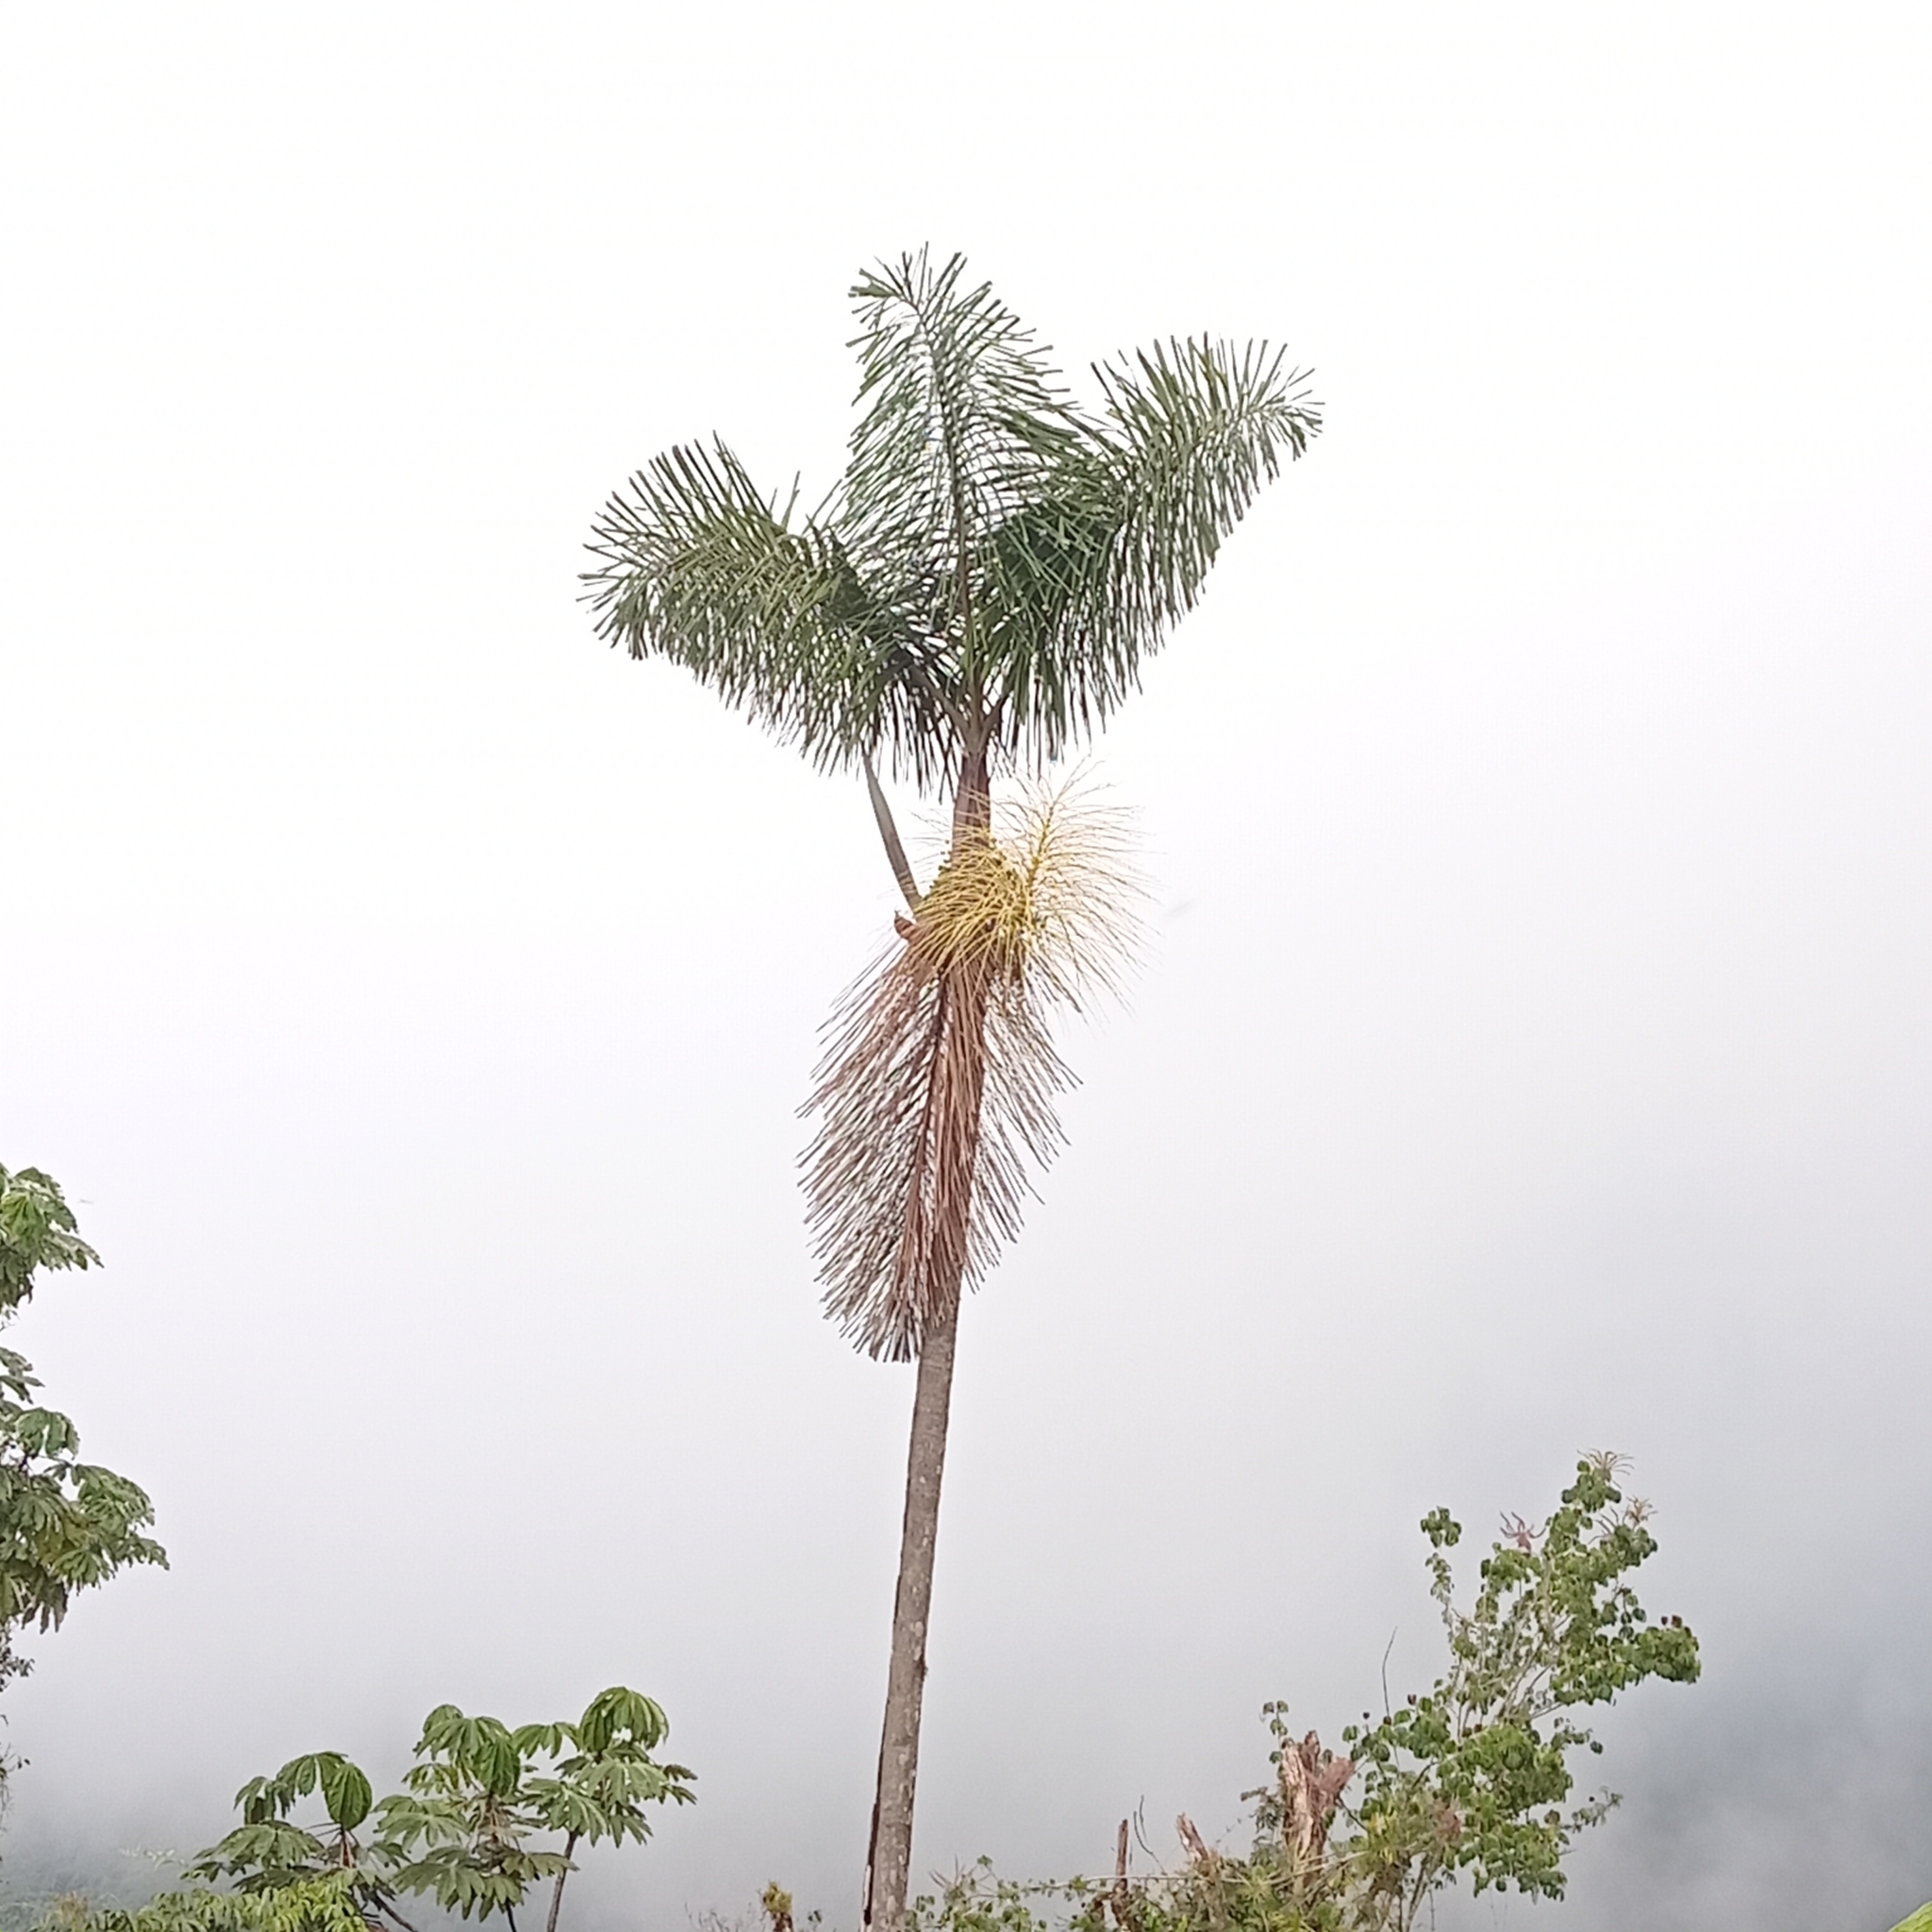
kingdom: Plantae
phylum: Tracheophyta
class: Liliopsida
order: Arecales
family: Arecaceae
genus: Dictyocaryum
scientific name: Dictyocaryum lamarckianum
